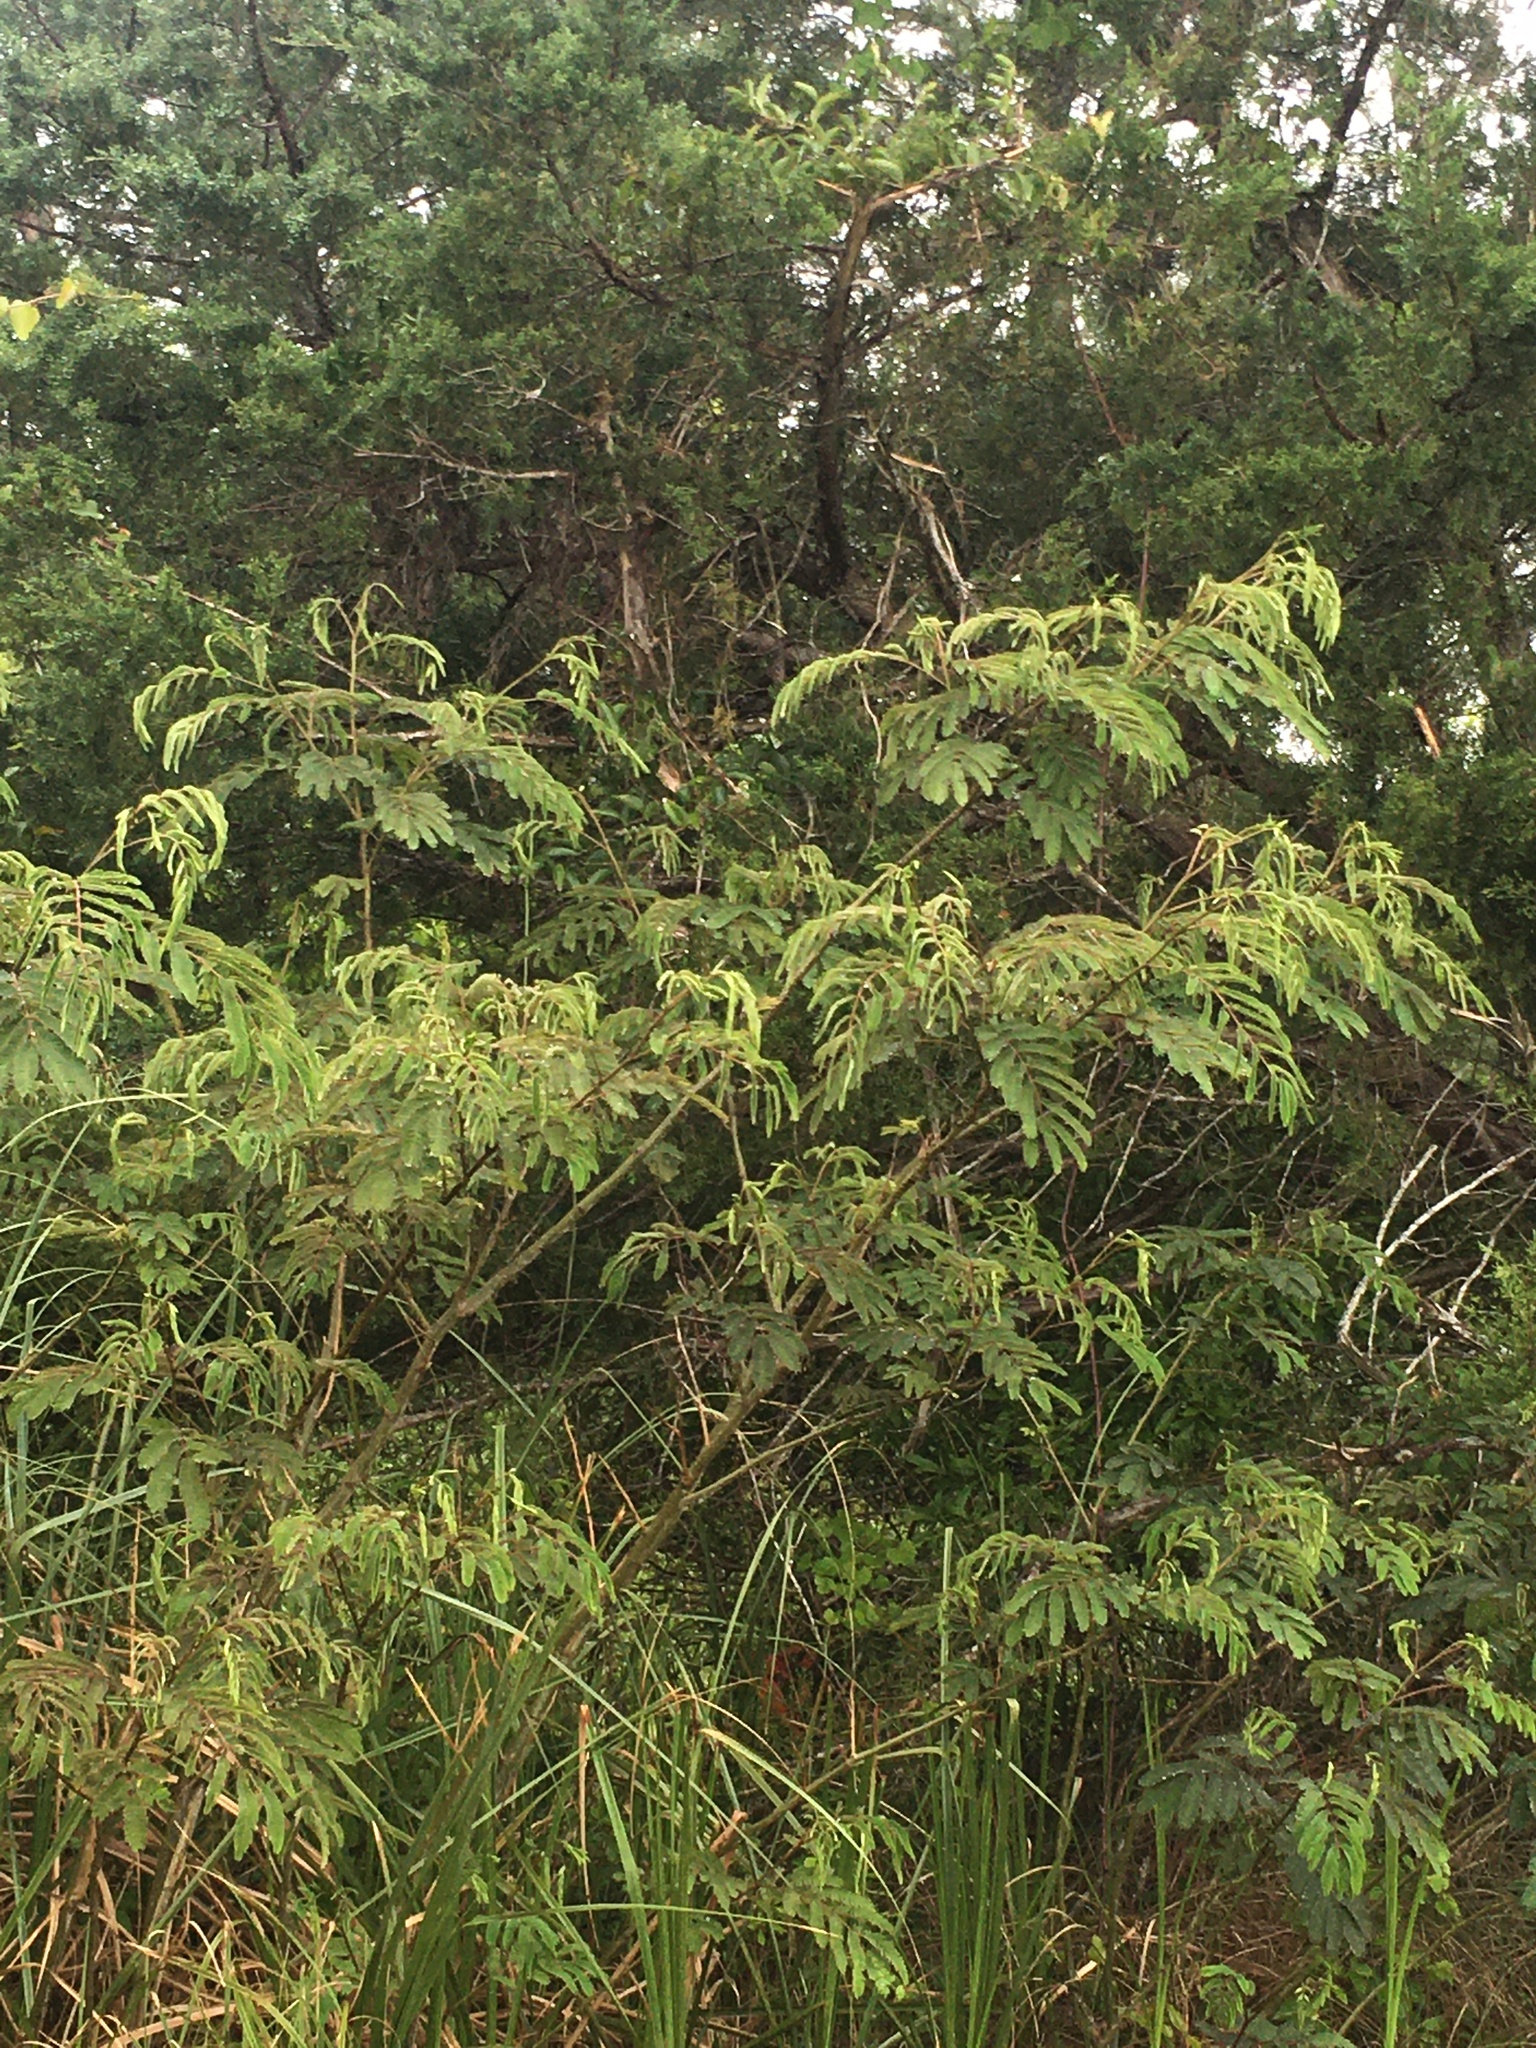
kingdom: Plantae
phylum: Tracheophyta
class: Magnoliopsida
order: Fabales
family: Fabaceae
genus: Albizia
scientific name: Albizia julibrissin
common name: Silktree
